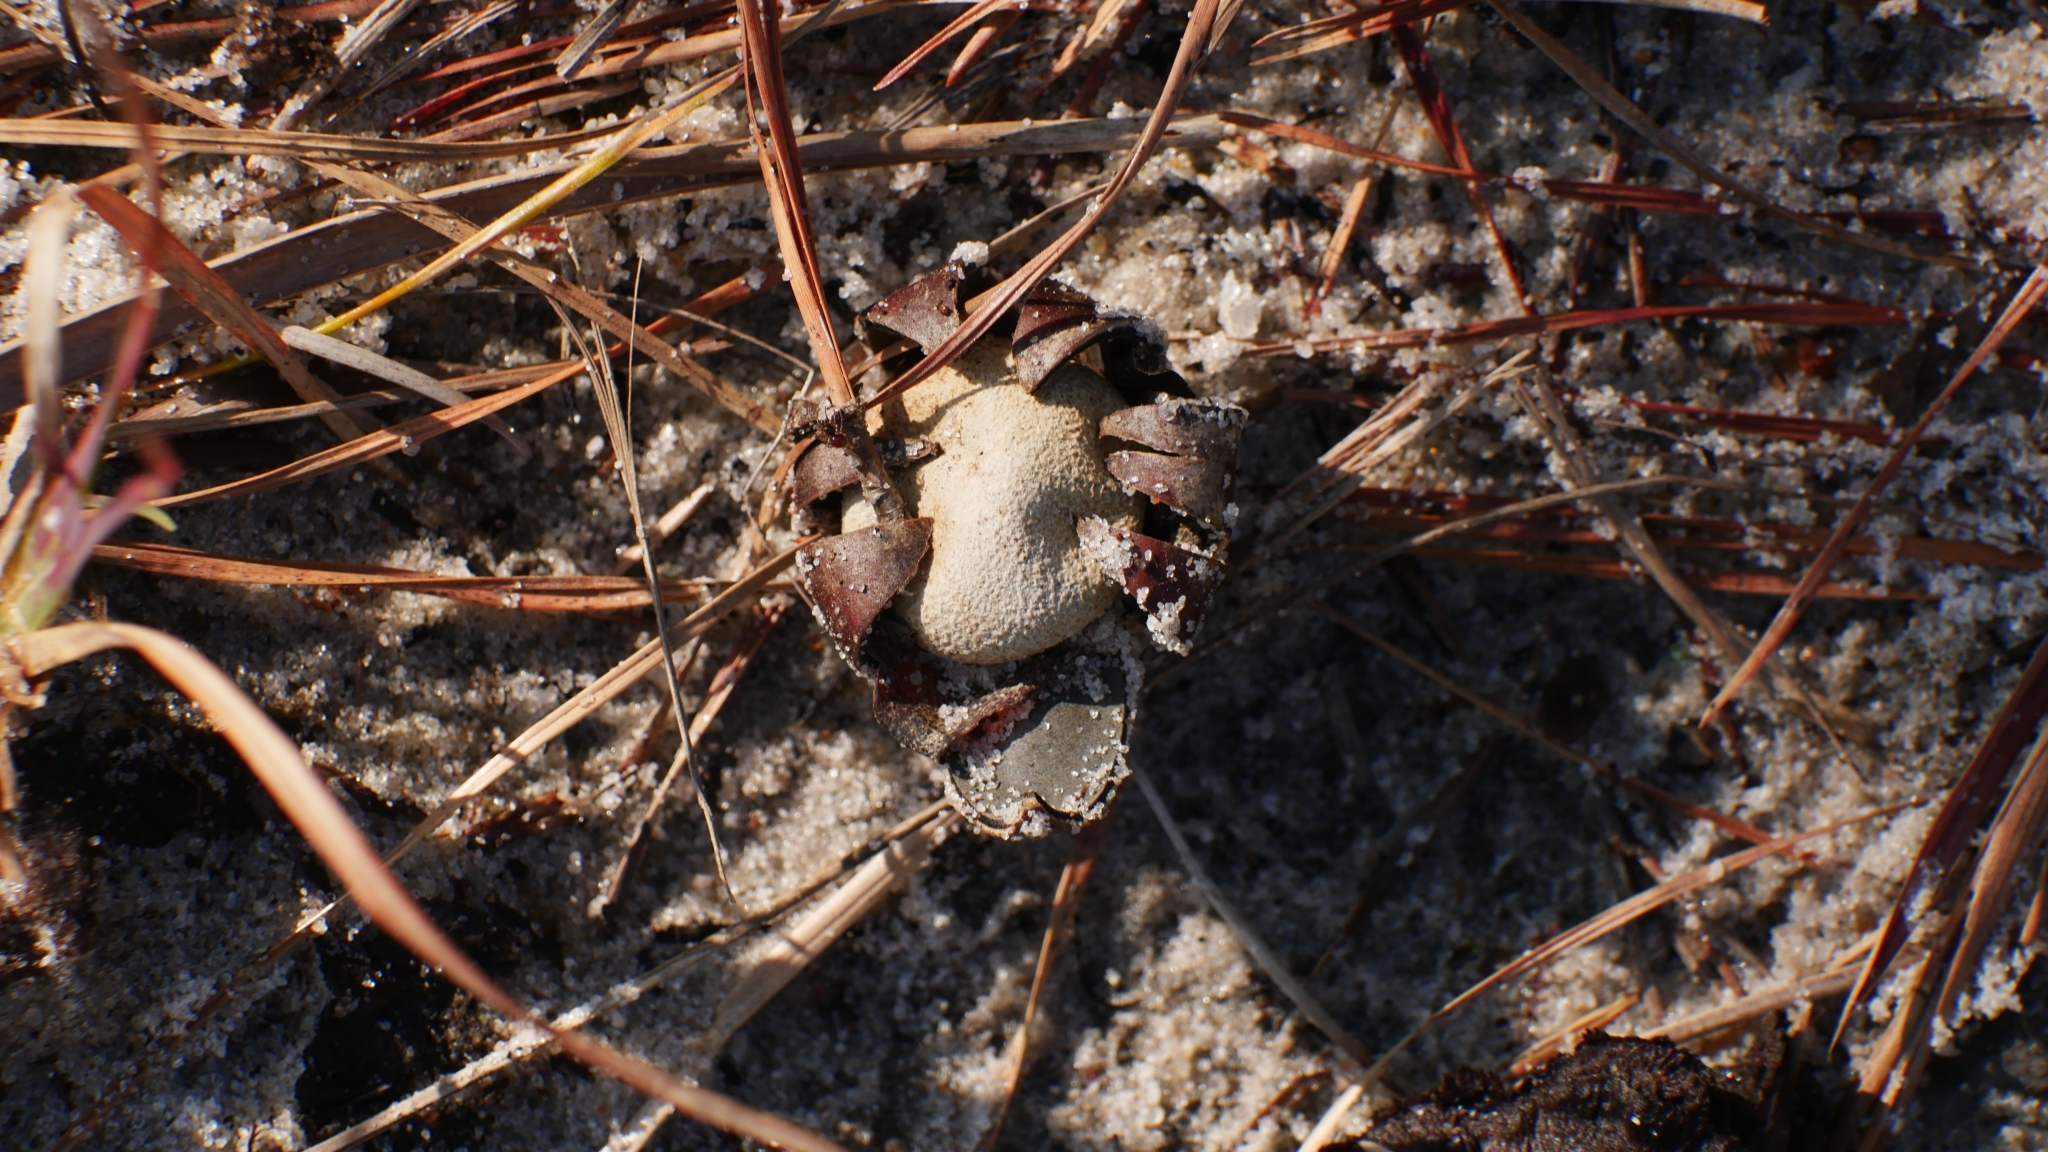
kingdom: Fungi
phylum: Basidiomycota
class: Agaricomycetes
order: Boletales
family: Diplocystidiaceae
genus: Astraeus
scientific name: Astraeus smithii
